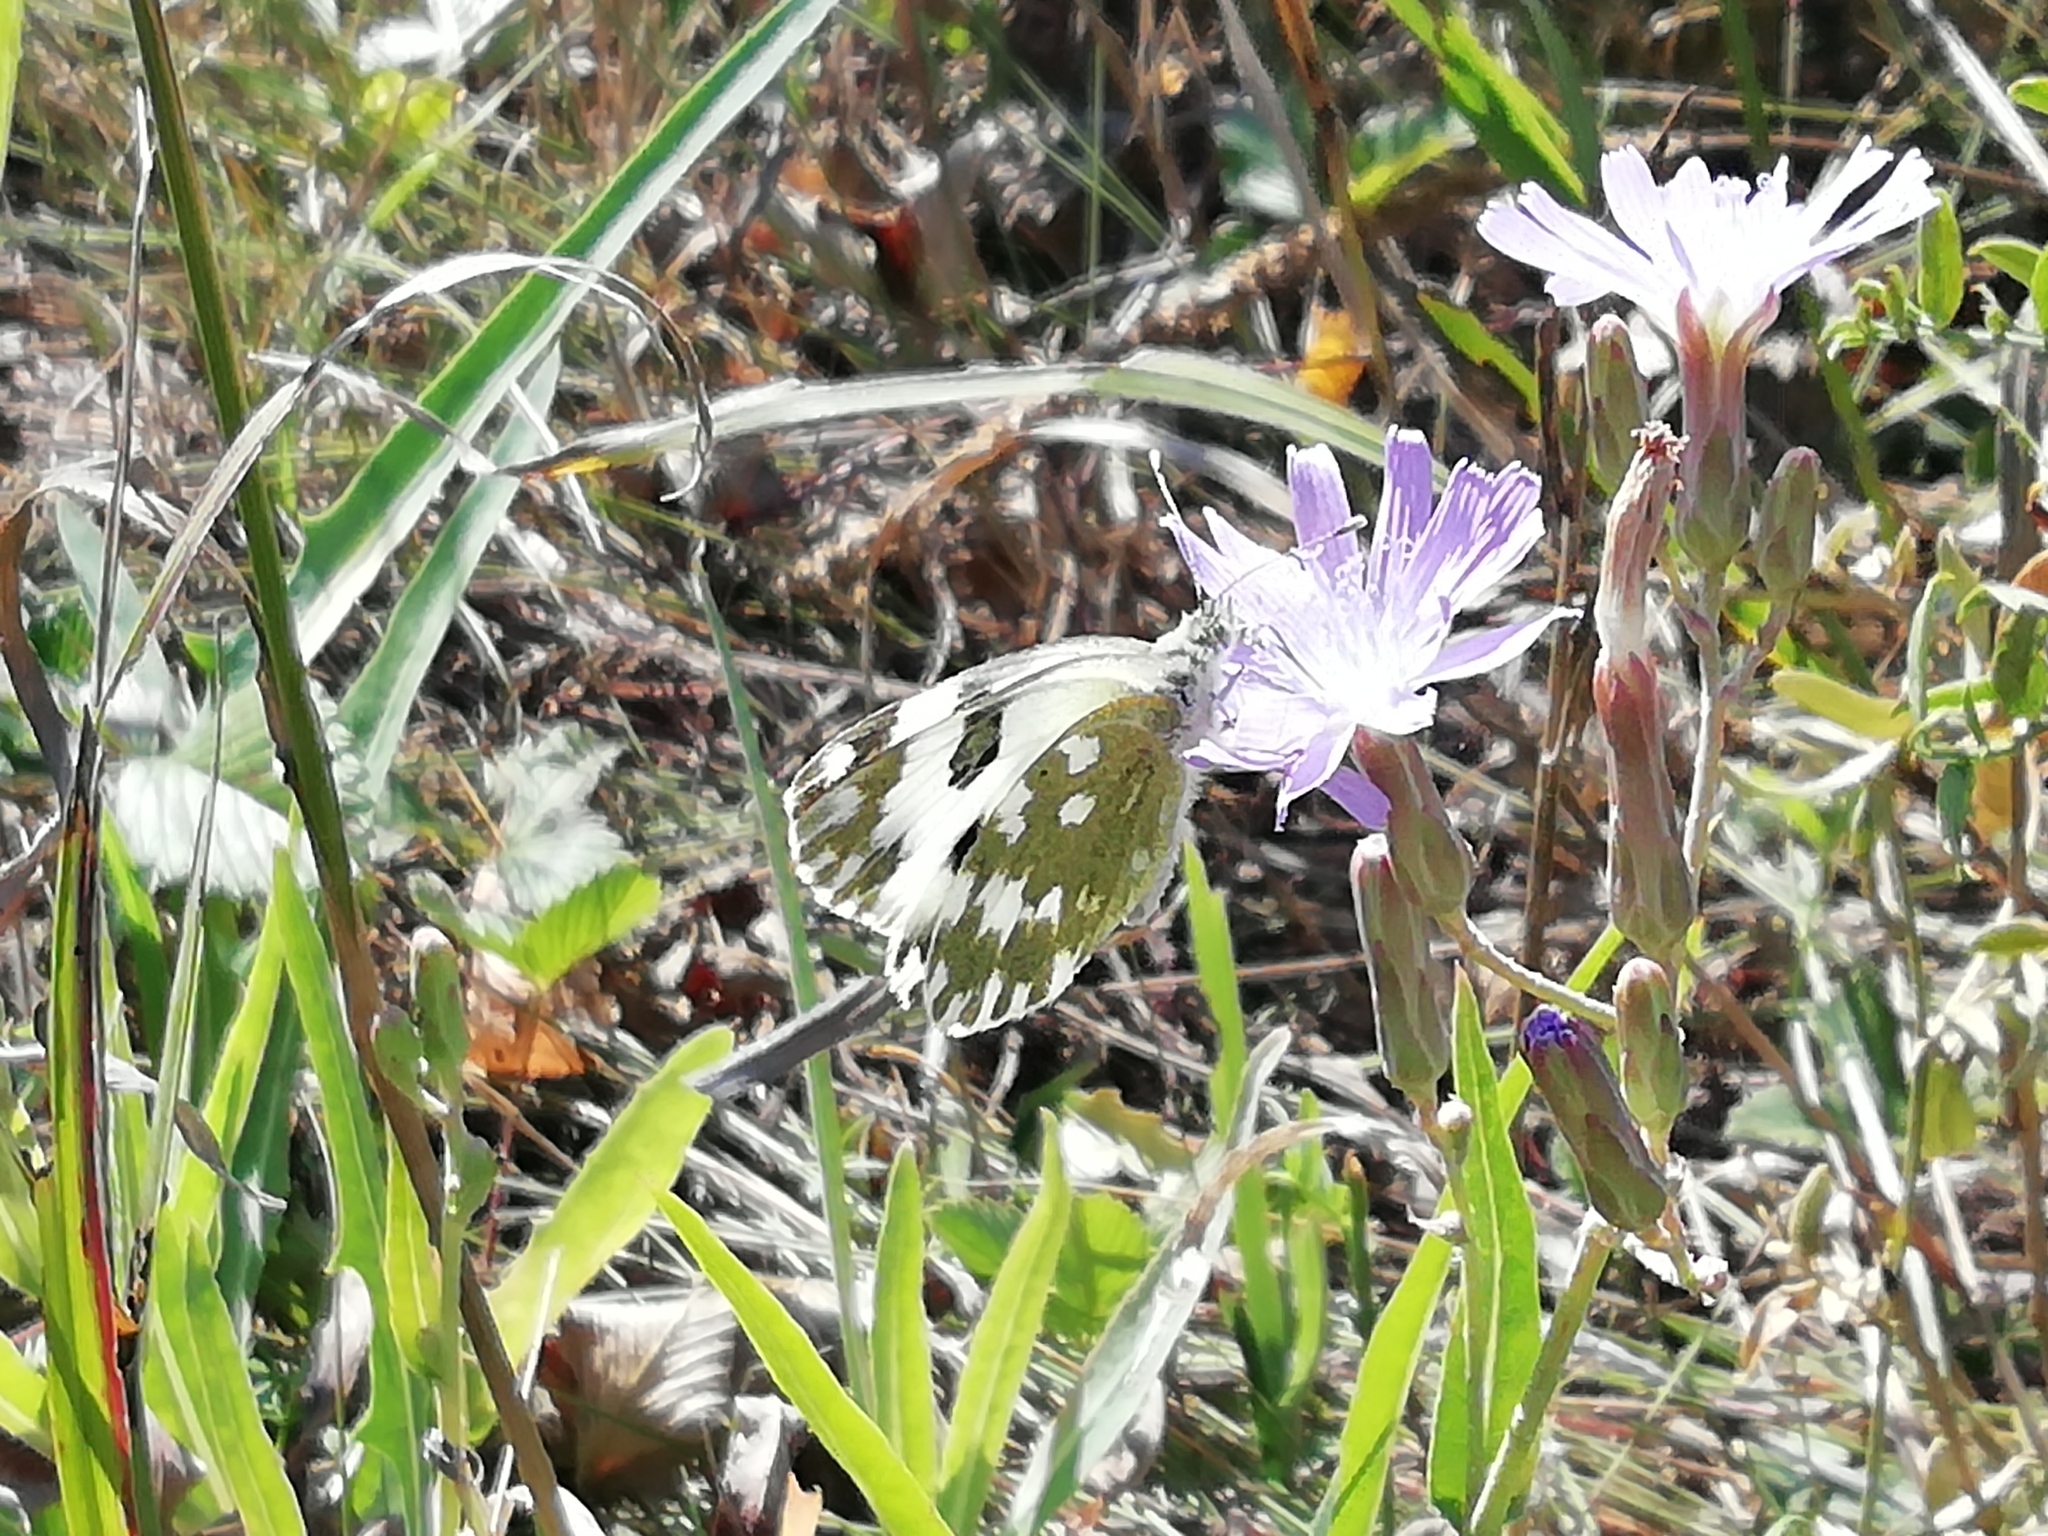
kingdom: Animalia
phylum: Arthropoda
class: Insecta
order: Lepidoptera
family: Pieridae
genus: Pontia
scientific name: Pontia edusa
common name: Eastern bath white
